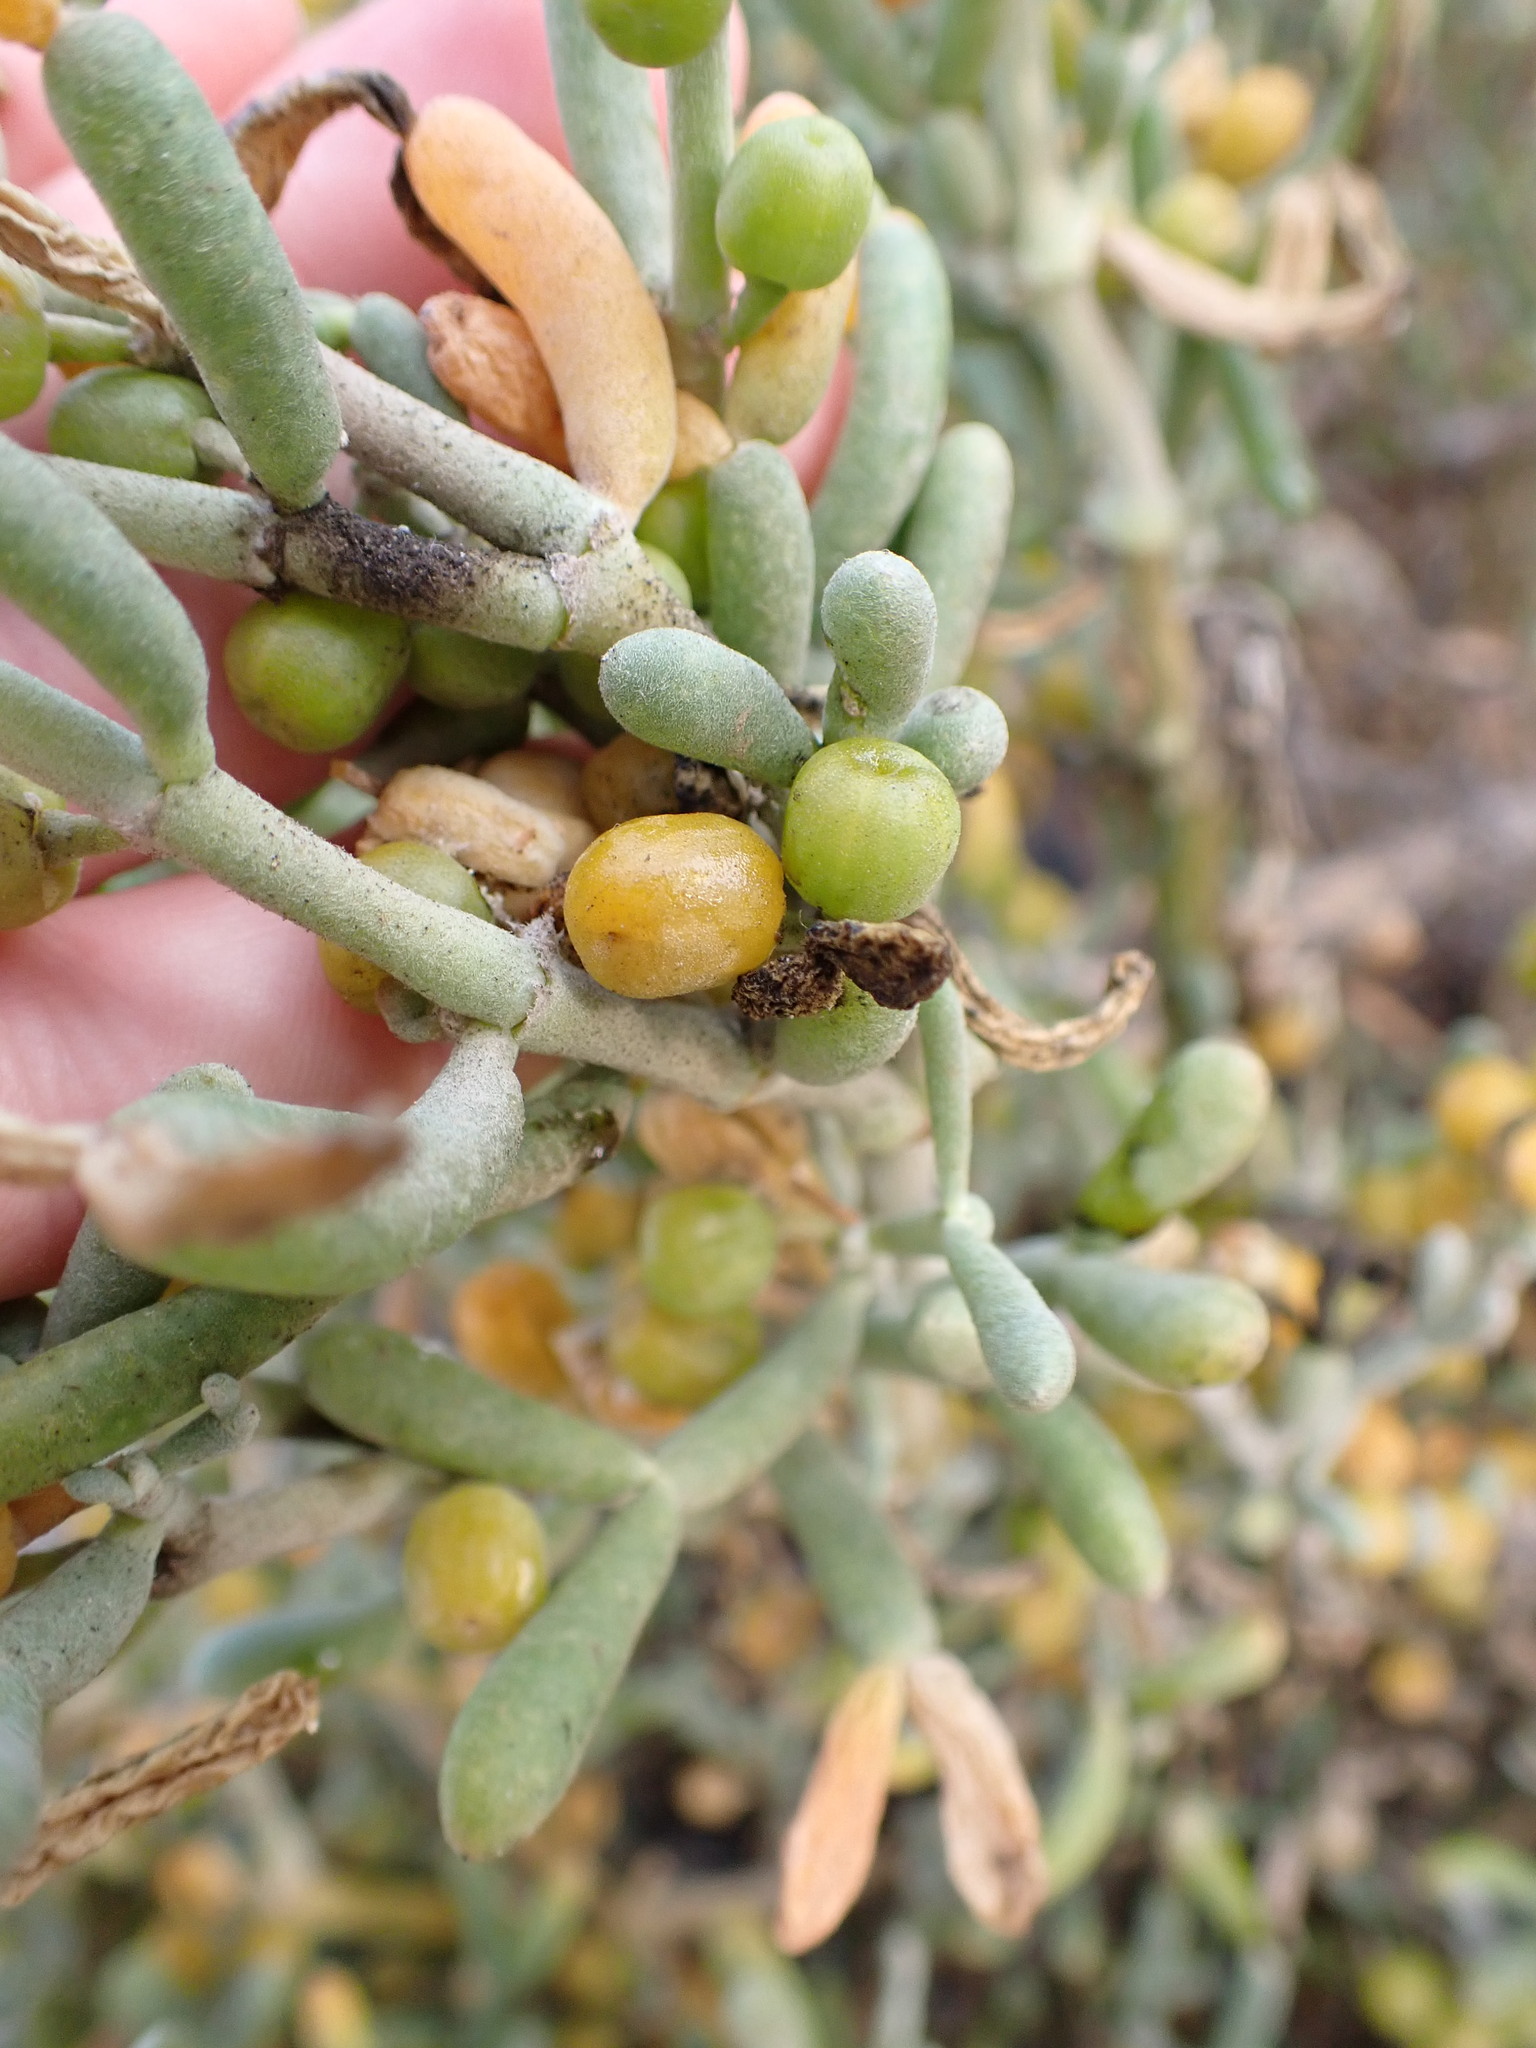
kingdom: Plantae
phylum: Tracheophyta
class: Magnoliopsida
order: Zygophyllales
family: Zygophyllaceae
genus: Tetraena
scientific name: Tetraena fontanesii
